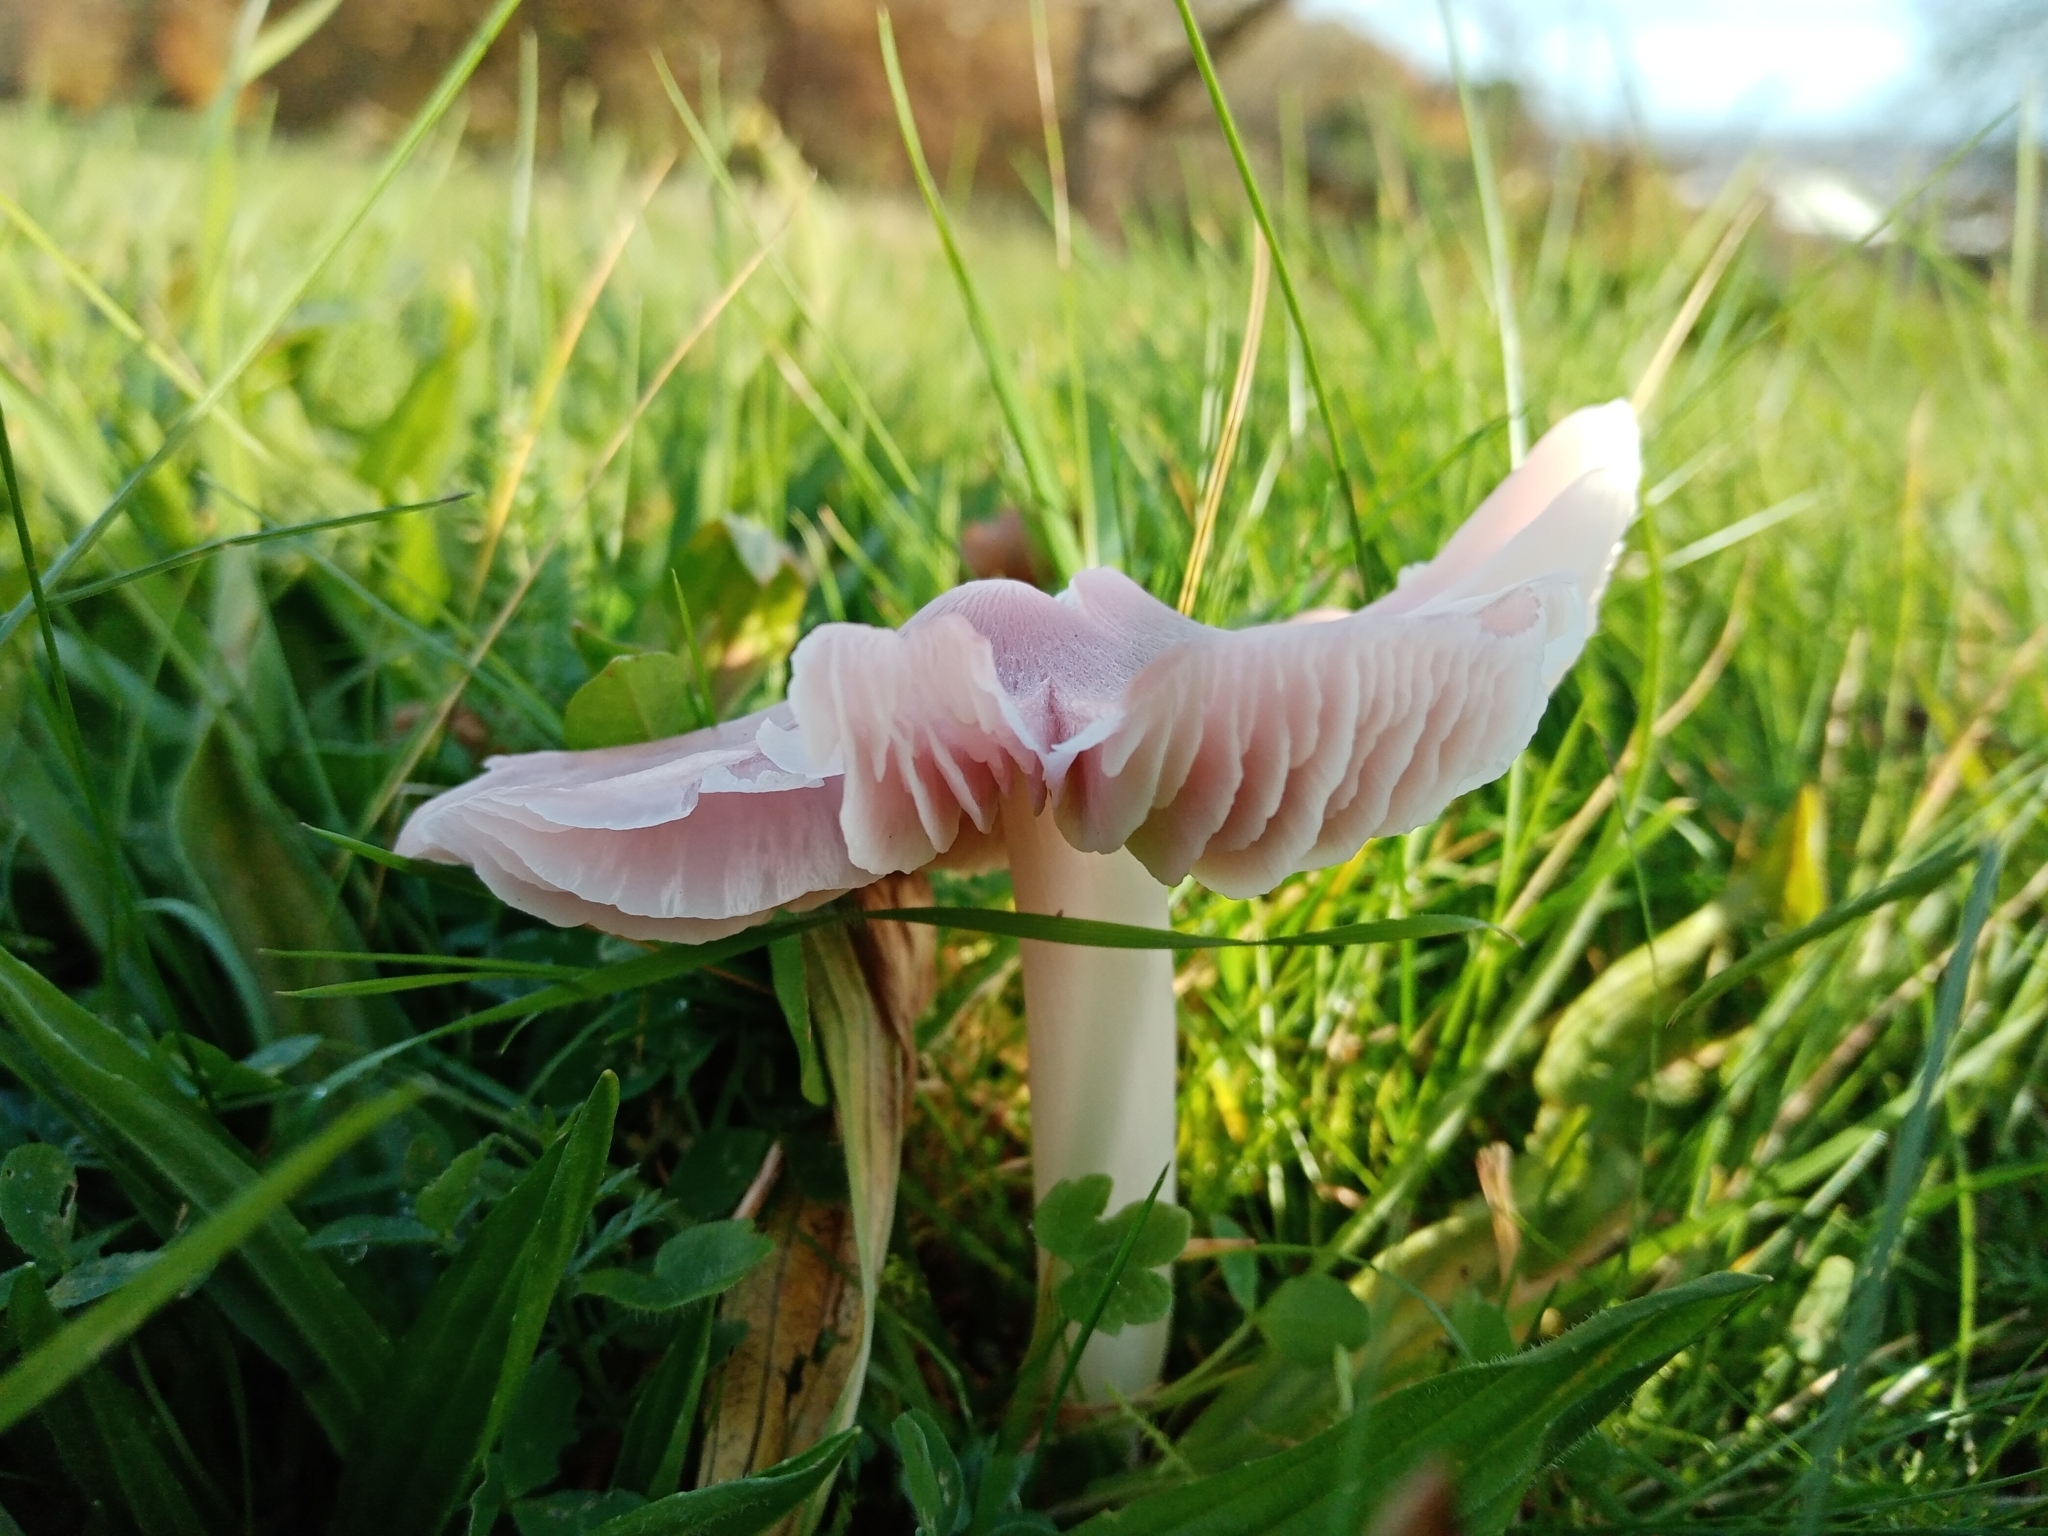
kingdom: Fungi
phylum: Basidiomycota
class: Agaricomycetes
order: Agaricales
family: Hygrophoraceae
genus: Porpolomopsis
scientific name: Porpolomopsis calyptriformis
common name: Pink waxcap
